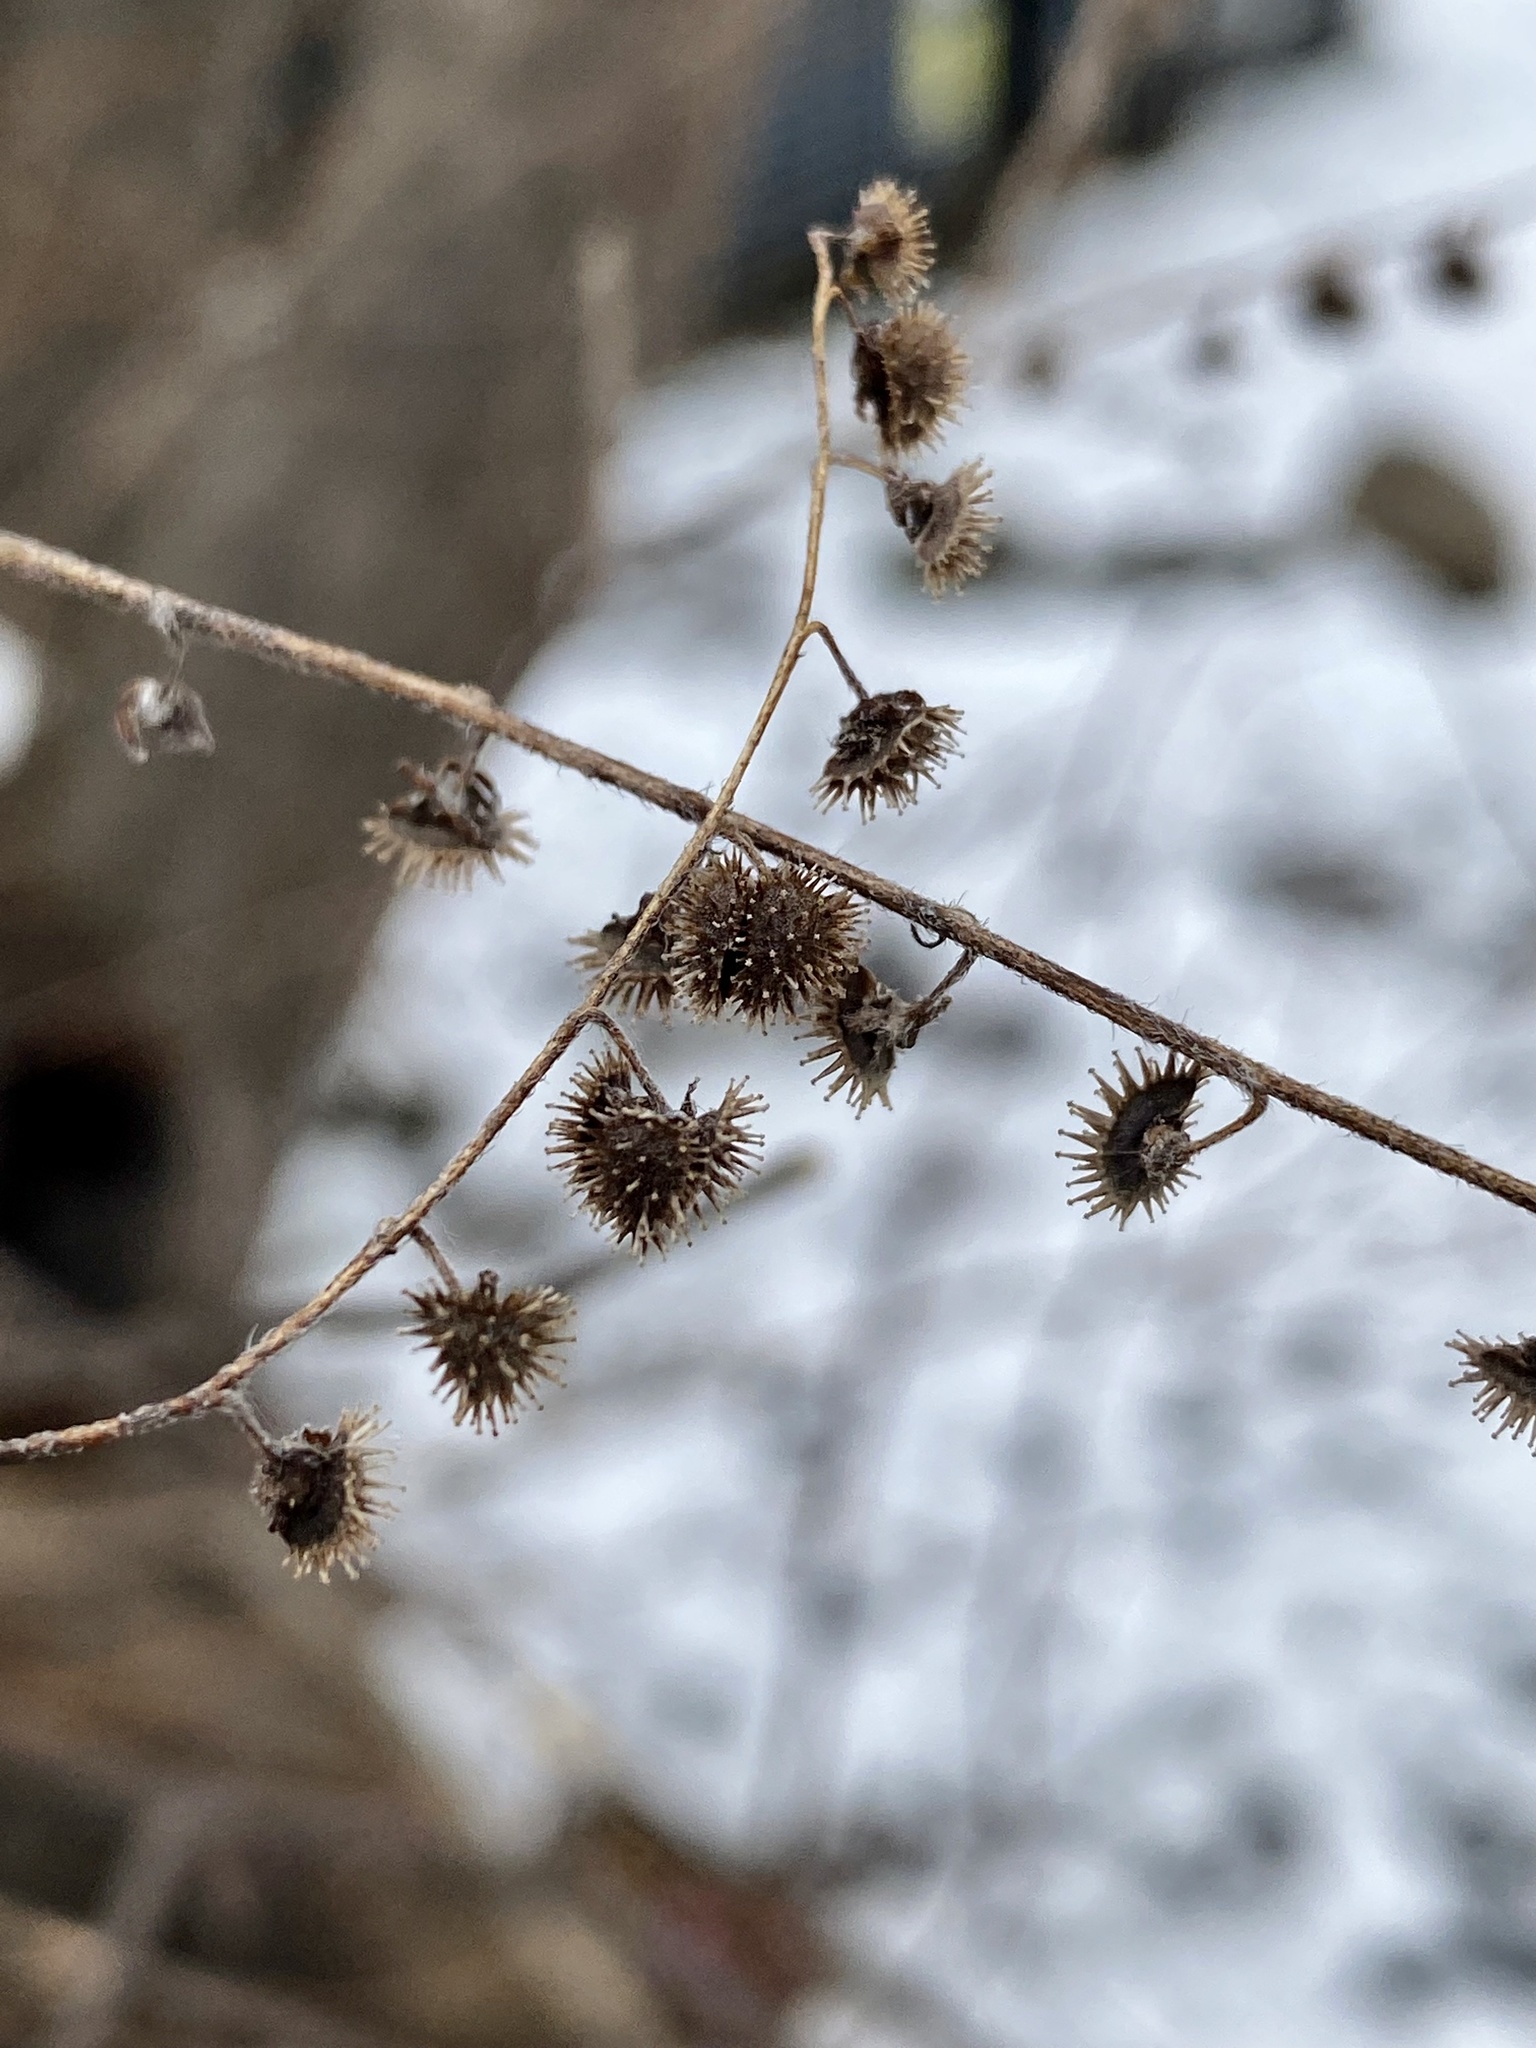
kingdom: Plantae
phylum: Tracheophyta
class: Magnoliopsida
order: Boraginales
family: Boraginaceae
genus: Hackelia
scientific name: Hackelia virginiana
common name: Beggar's-lice
